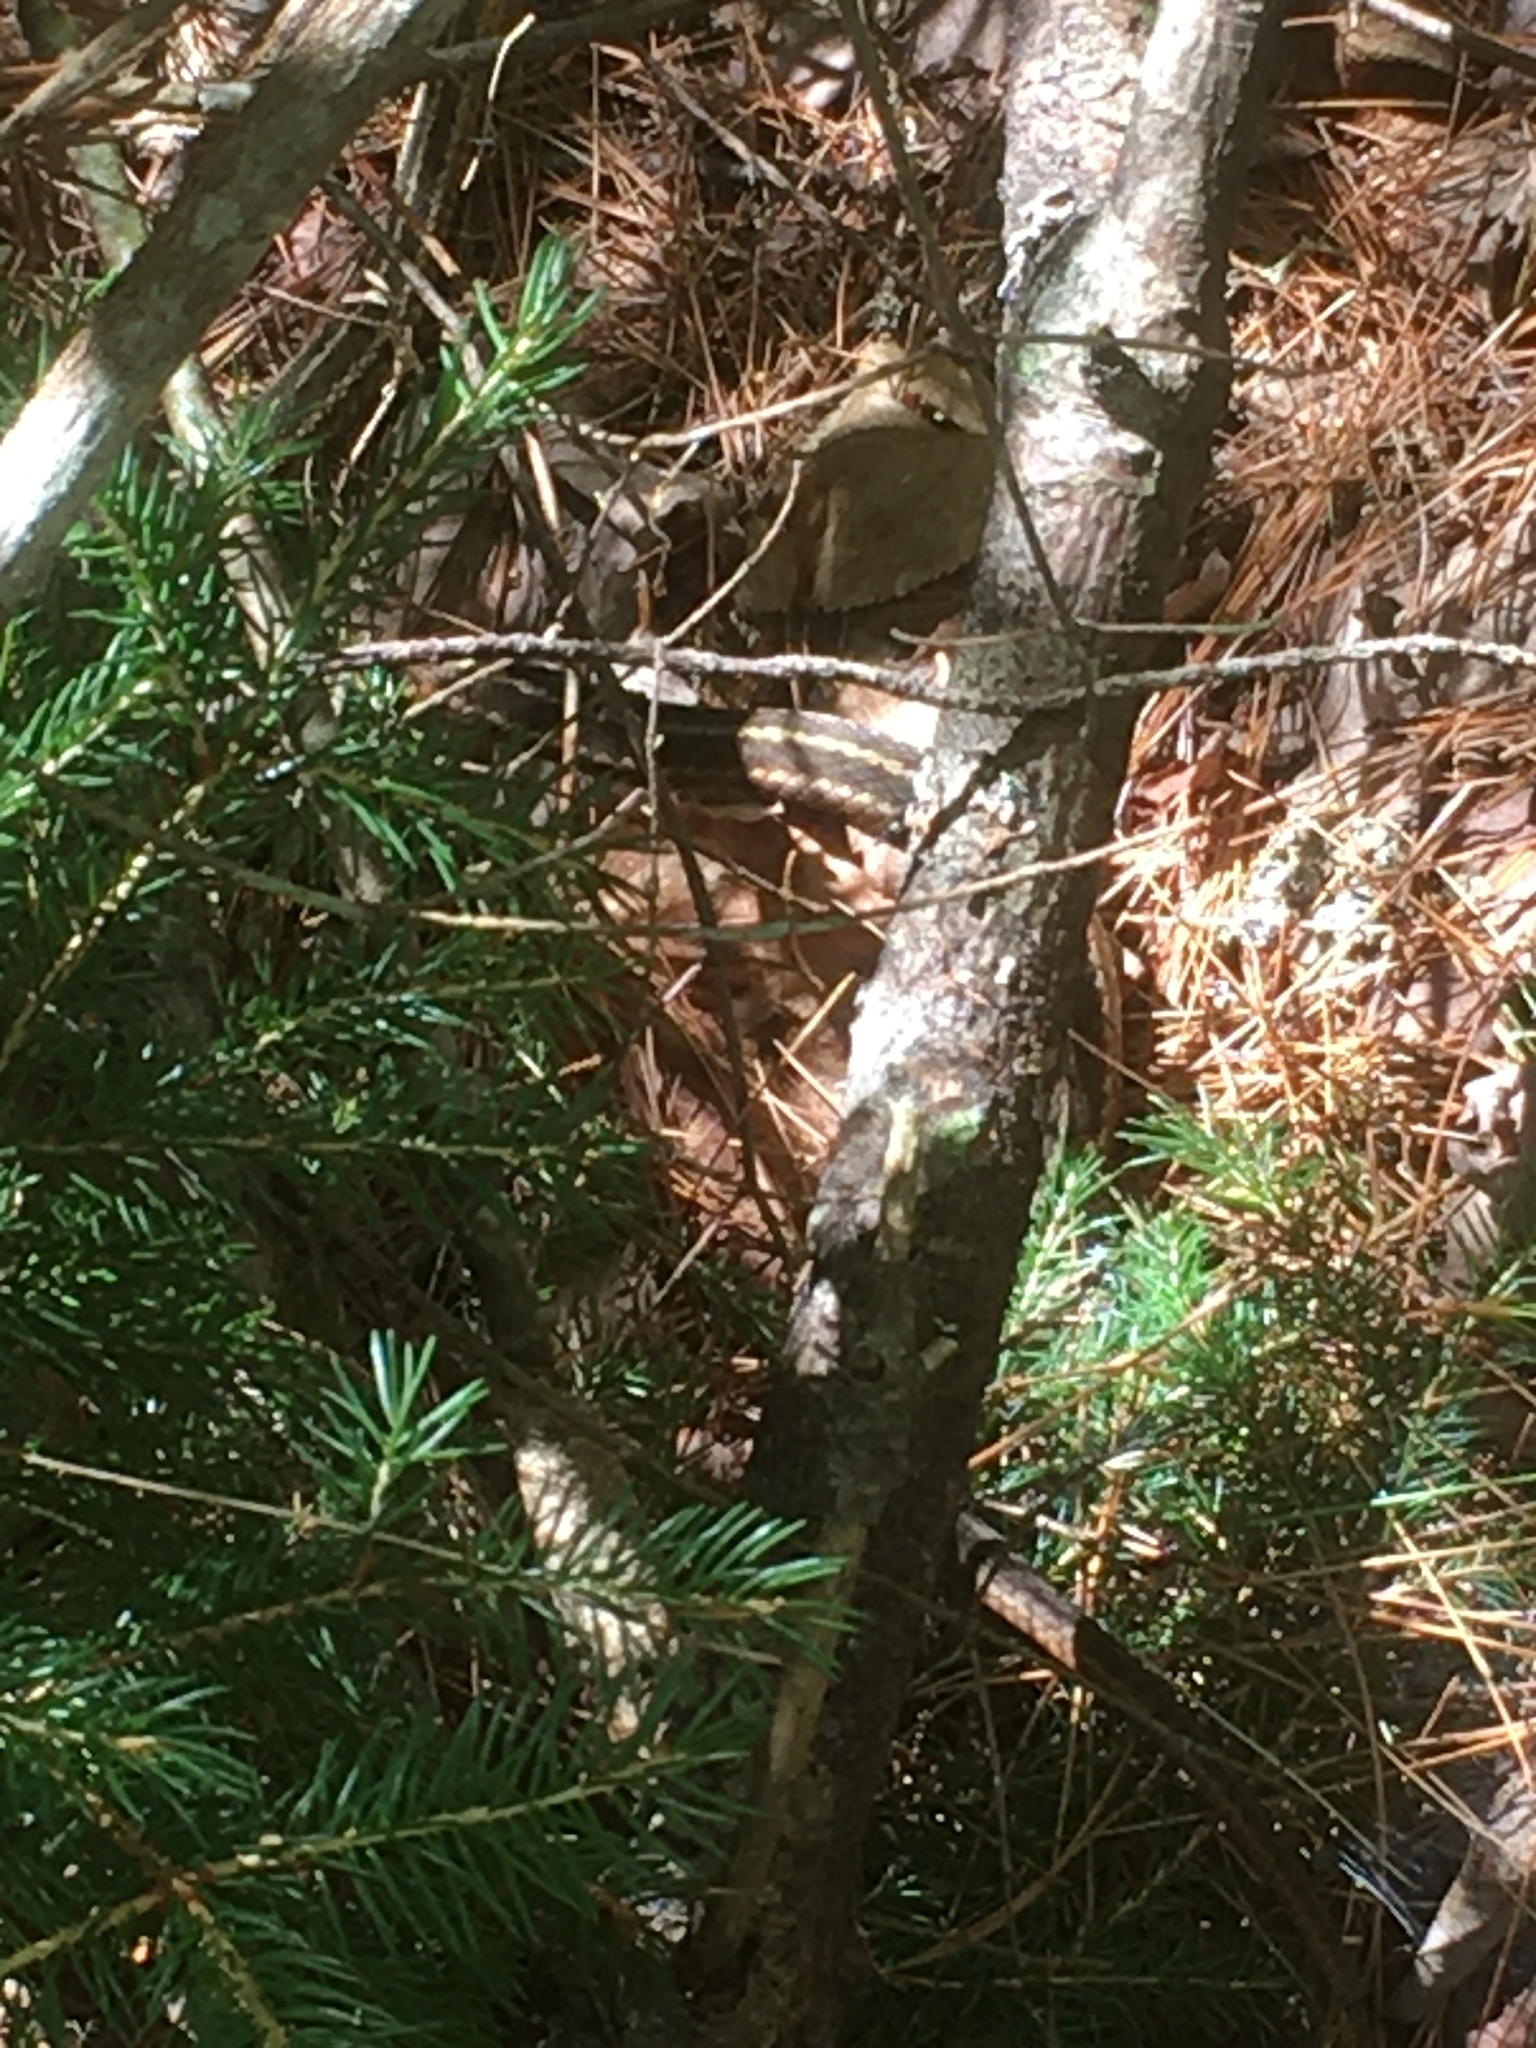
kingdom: Animalia
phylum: Chordata
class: Squamata
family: Colubridae
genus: Thamnophis
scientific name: Thamnophis sirtalis
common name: Common garter snake
